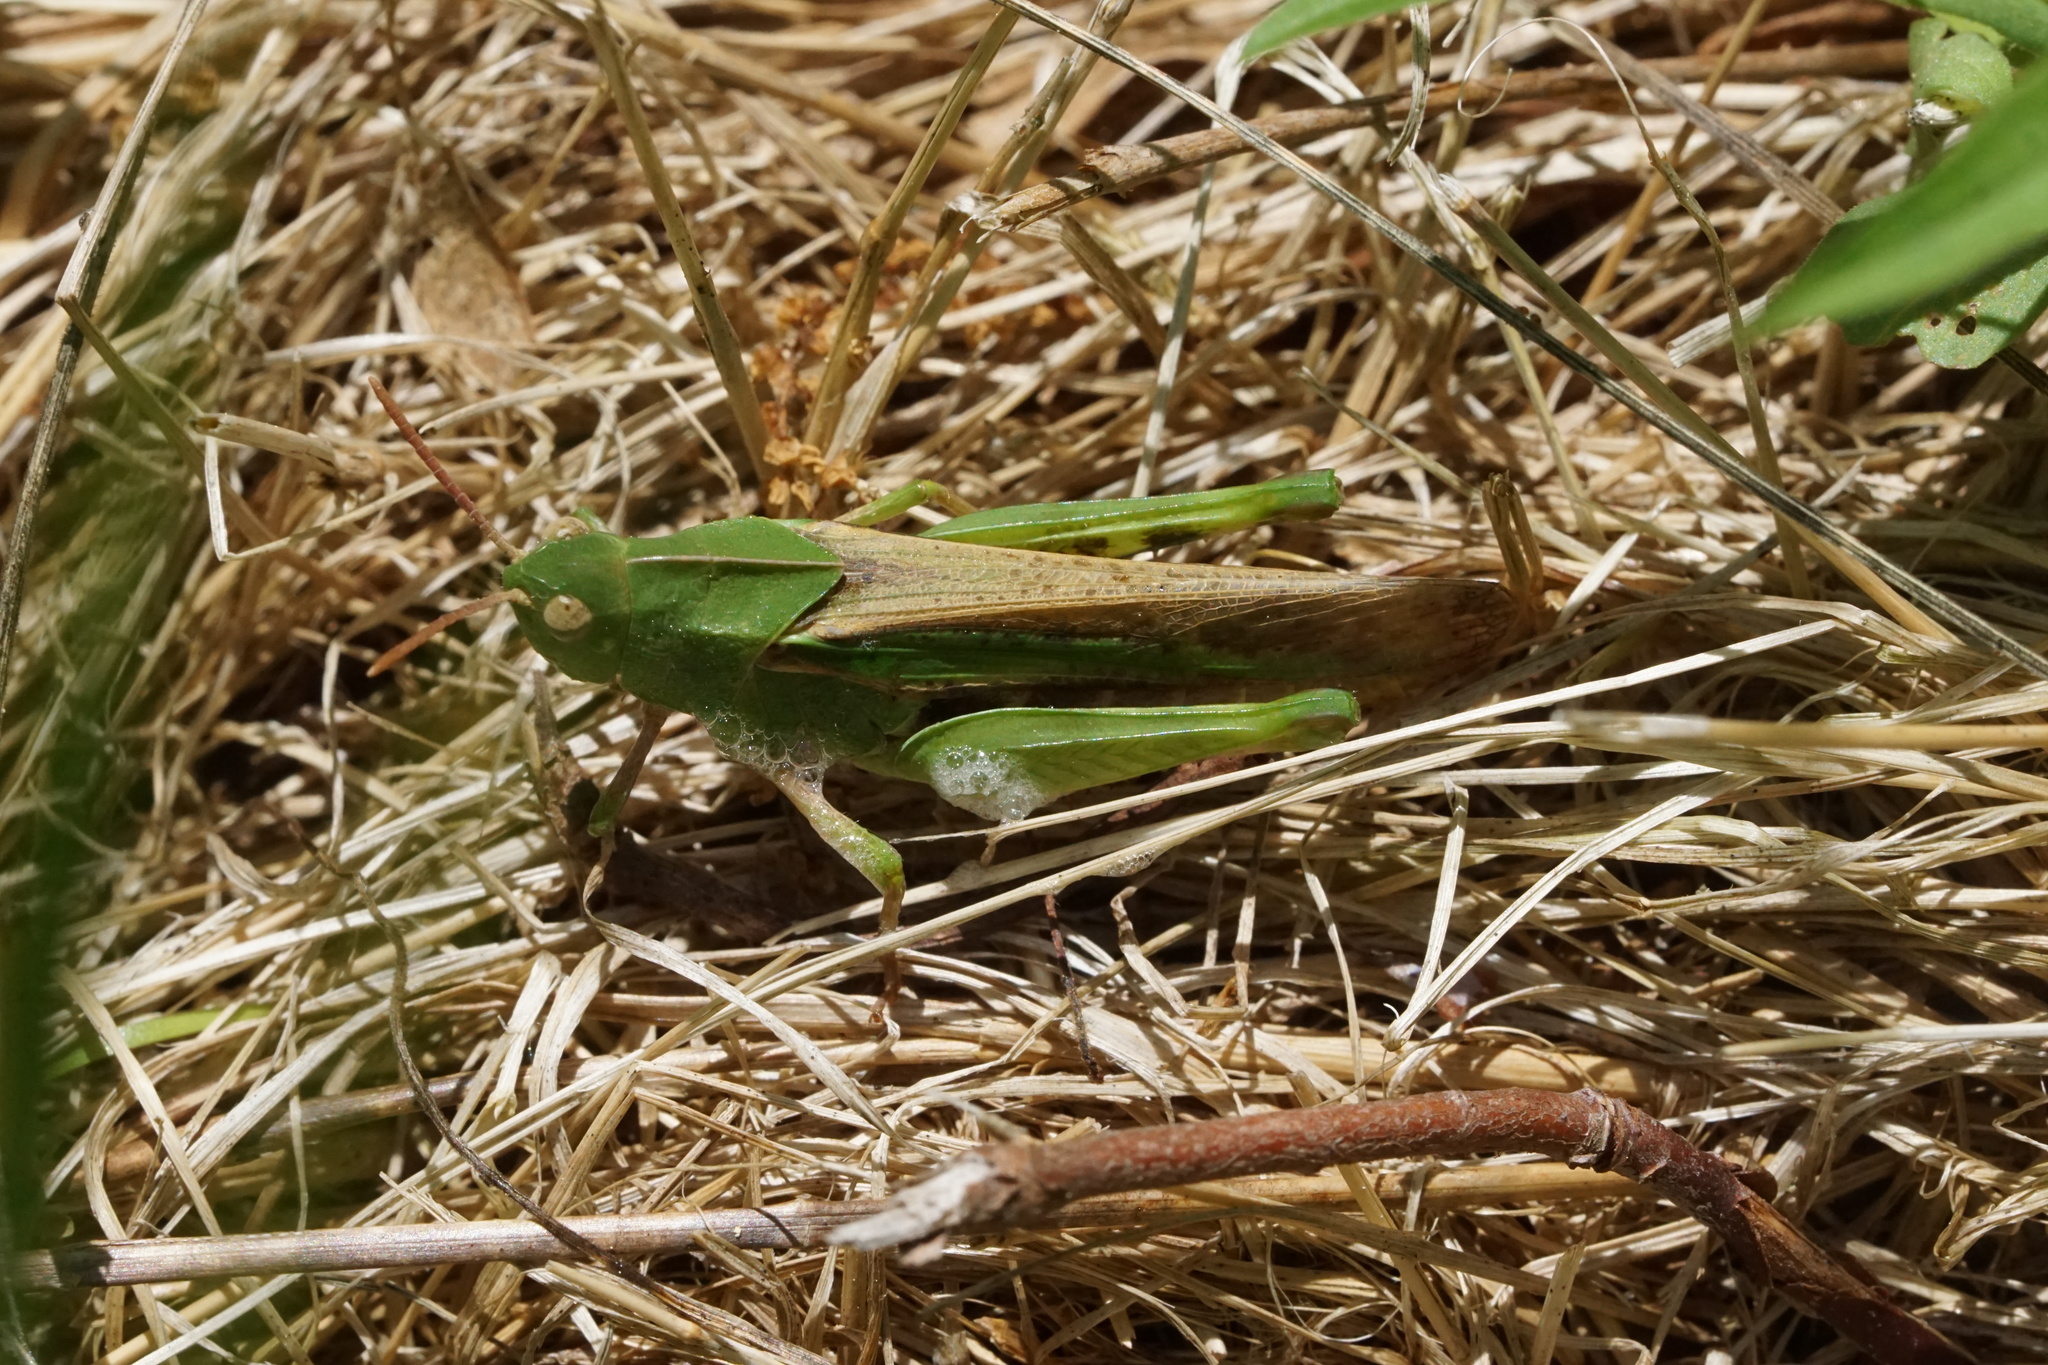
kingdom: Animalia
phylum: Arthropoda
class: Insecta
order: Orthoptera
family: Acrididae
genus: Chortophaga
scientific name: Chortophaga viridifasciata
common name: Green-striped grasshopper
